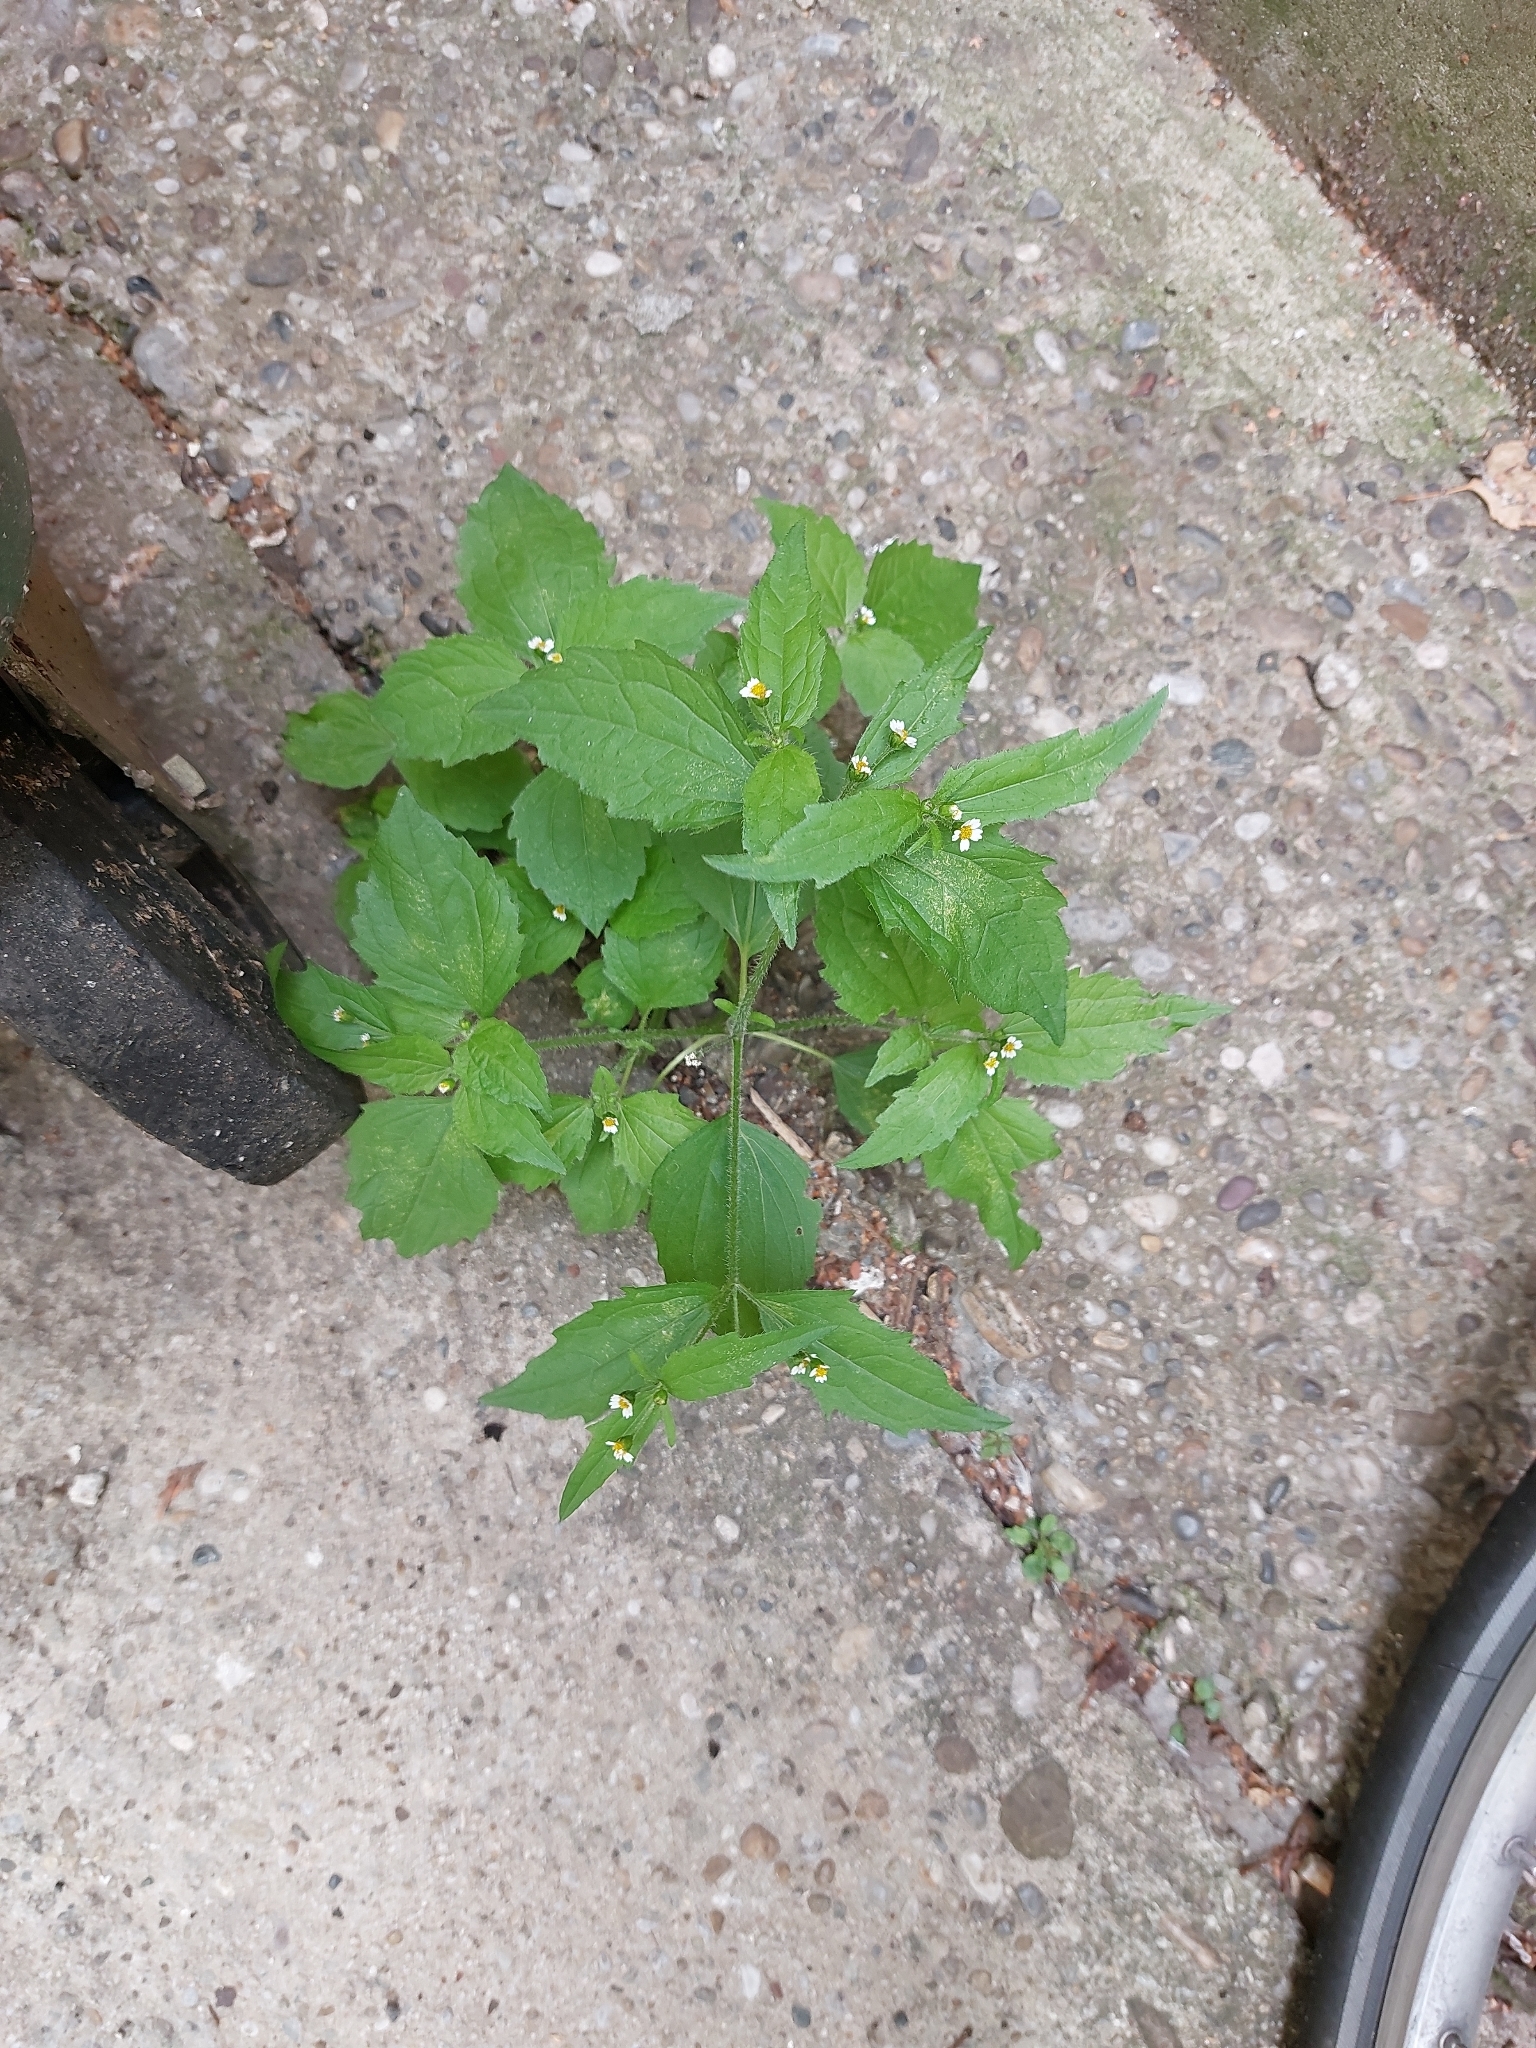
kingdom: Plantae
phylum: Tracheophyta
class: Magnoliopsida
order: Asterales
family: Asteraceae
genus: Galinsoga
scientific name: Galinsoga quadriradiata
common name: Shaggy soldier
